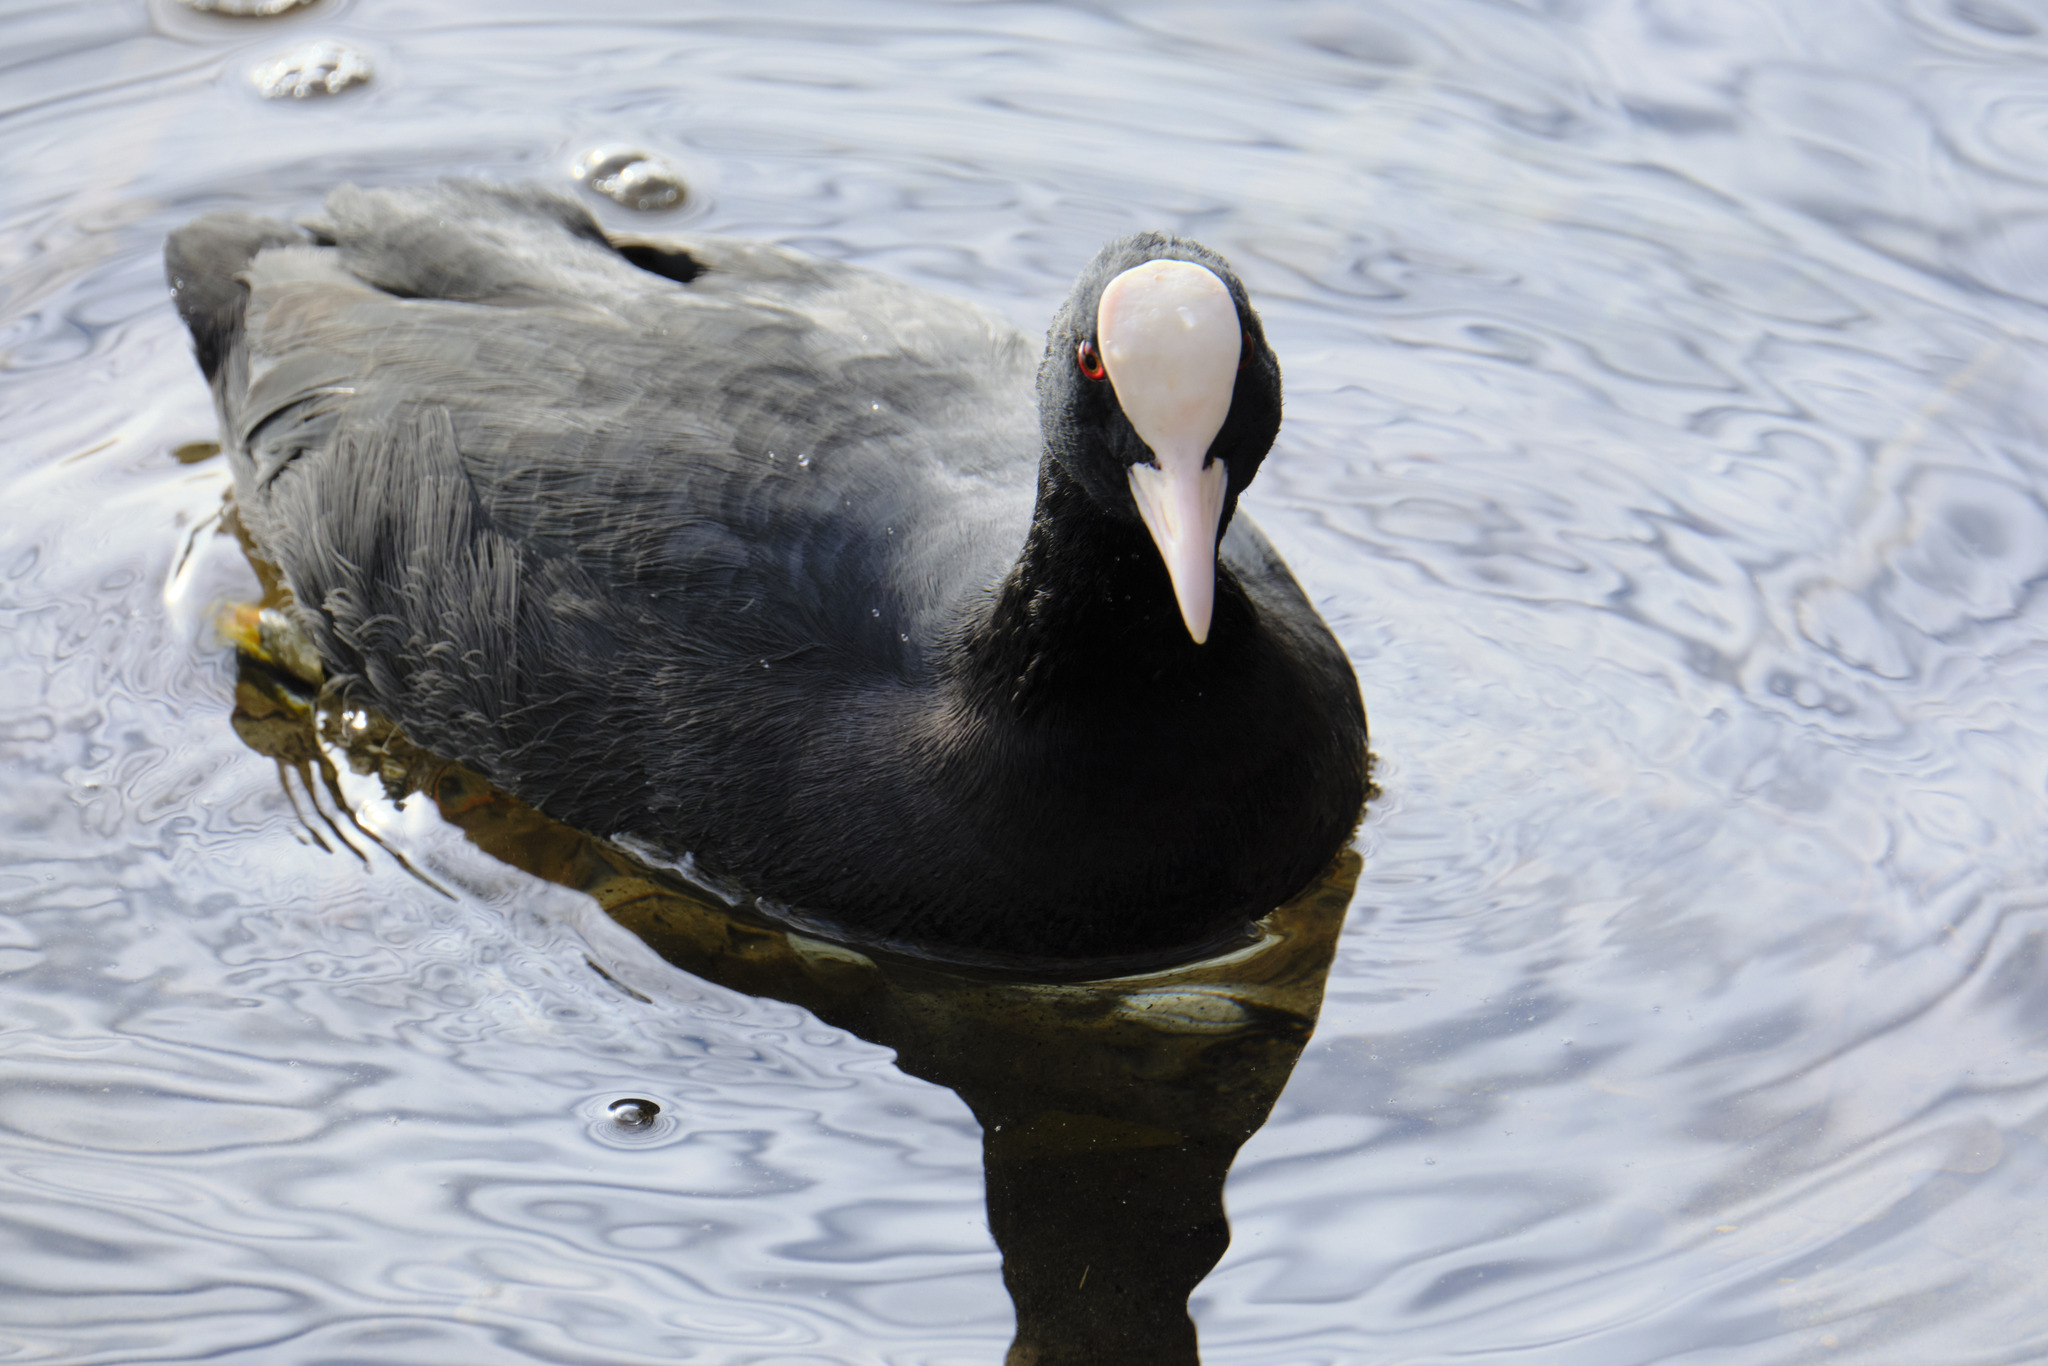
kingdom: Animalia
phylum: Chordata
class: Aves
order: Gruiformes
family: Rallidae
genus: Fulica
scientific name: Fulica atra
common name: Eurasian coot
